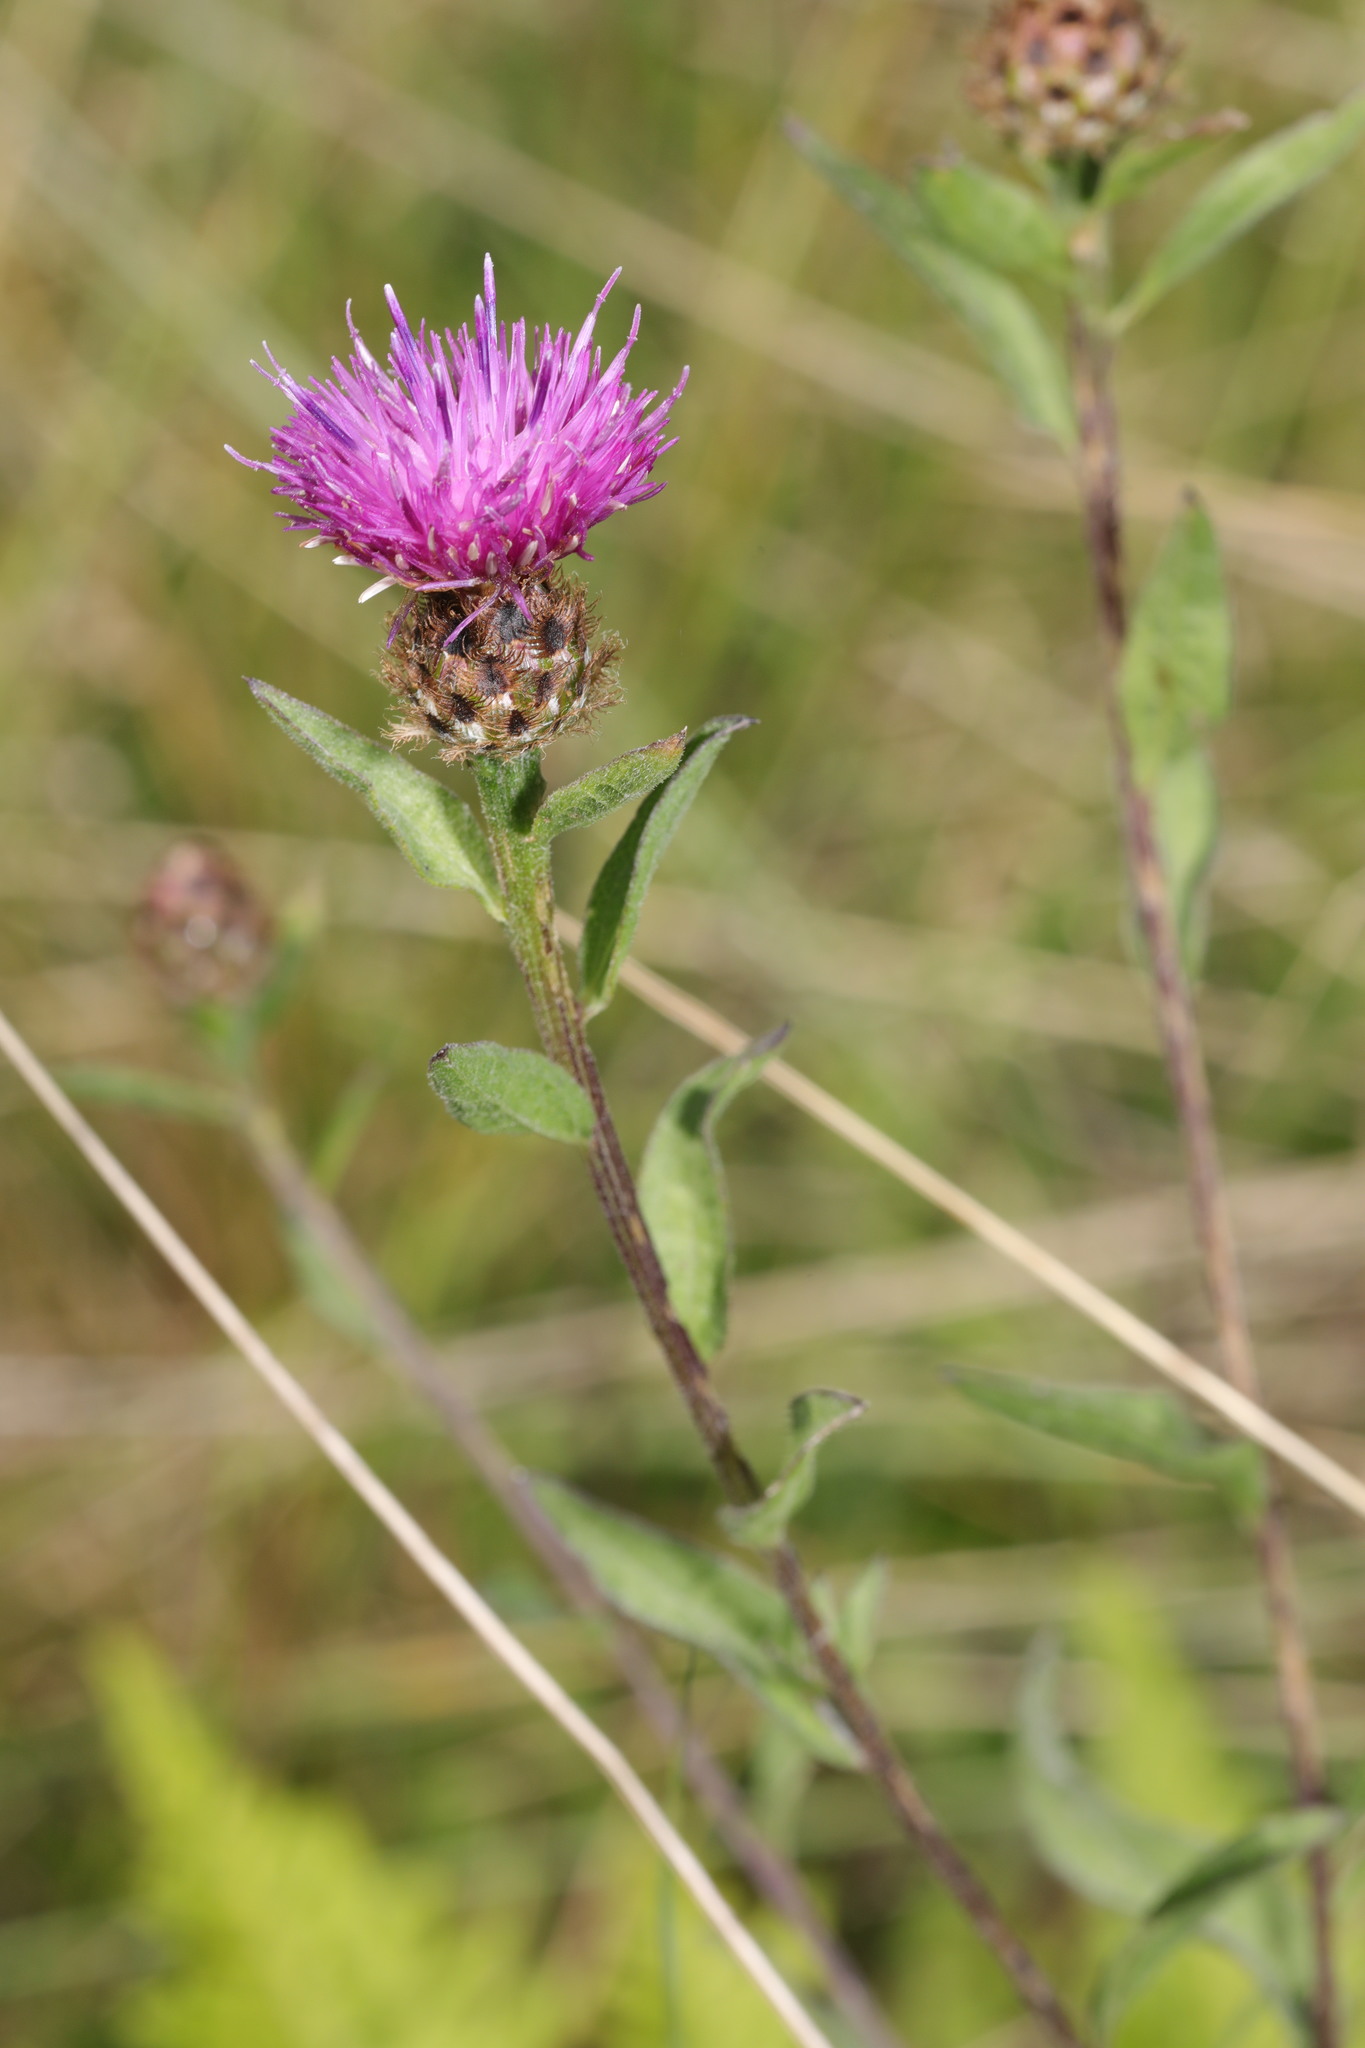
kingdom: Plantae
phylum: Tracheophyta
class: Magnoliopsida
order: Asterales
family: Asteraceae
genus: Centaurea
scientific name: Centaurea nigra
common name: Lesser knapweed
